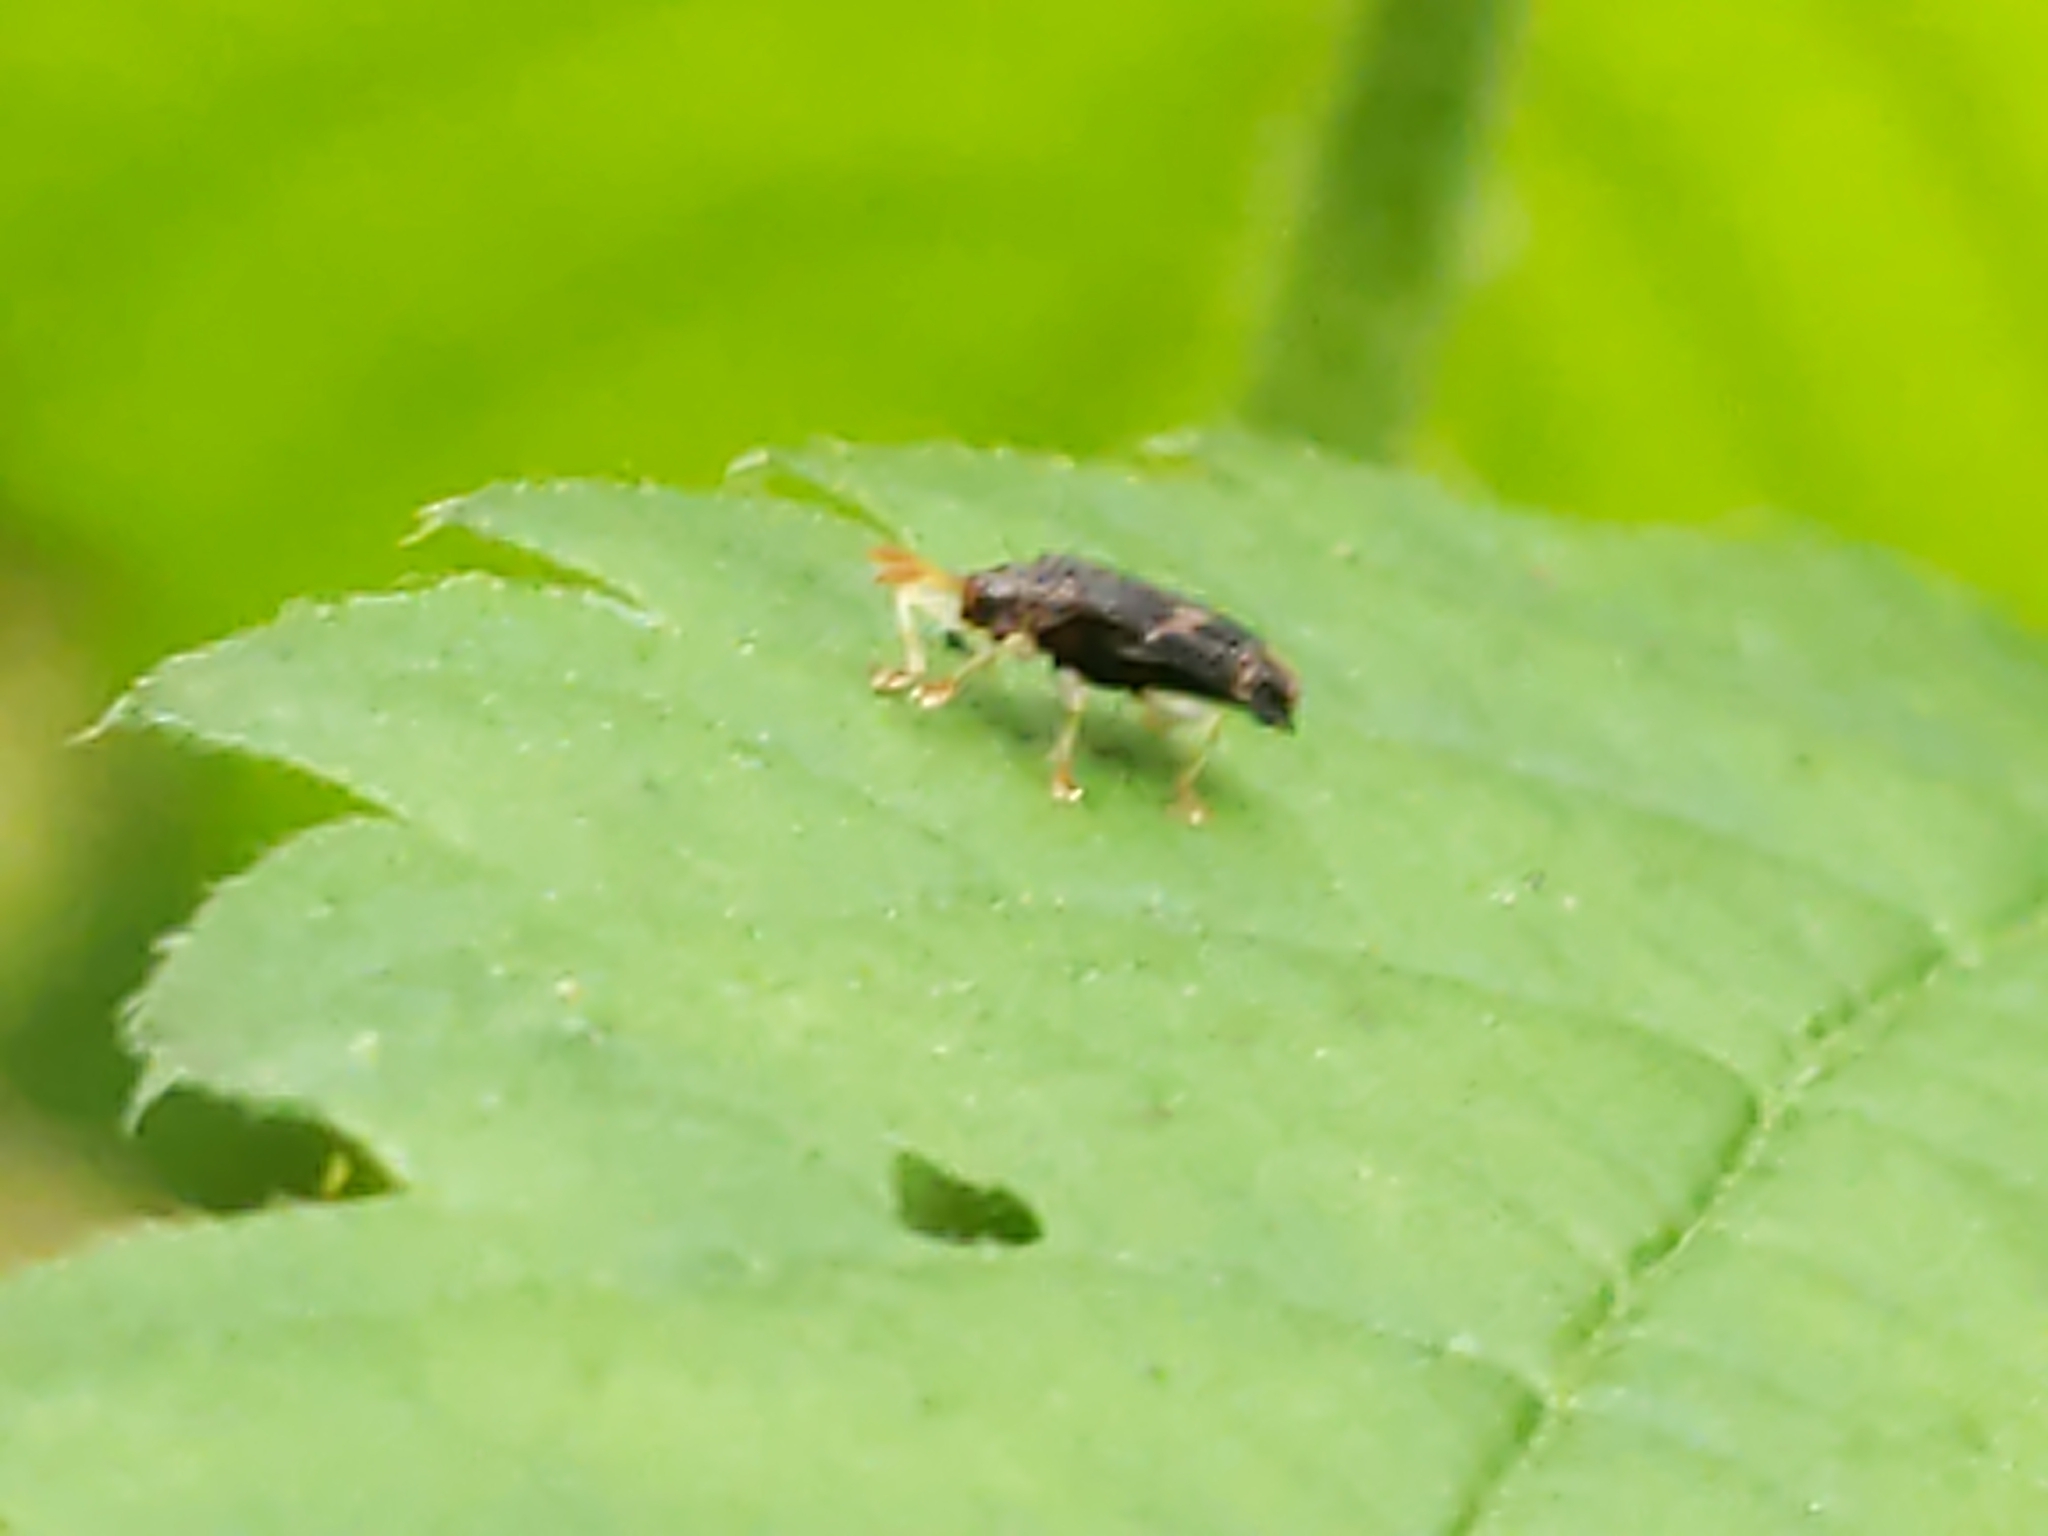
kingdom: Animalia
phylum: Arthropoda
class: Insecta
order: Coleoptera
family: Chrysomelidae
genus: Sumitrosis
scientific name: Sumitrosis rosea
